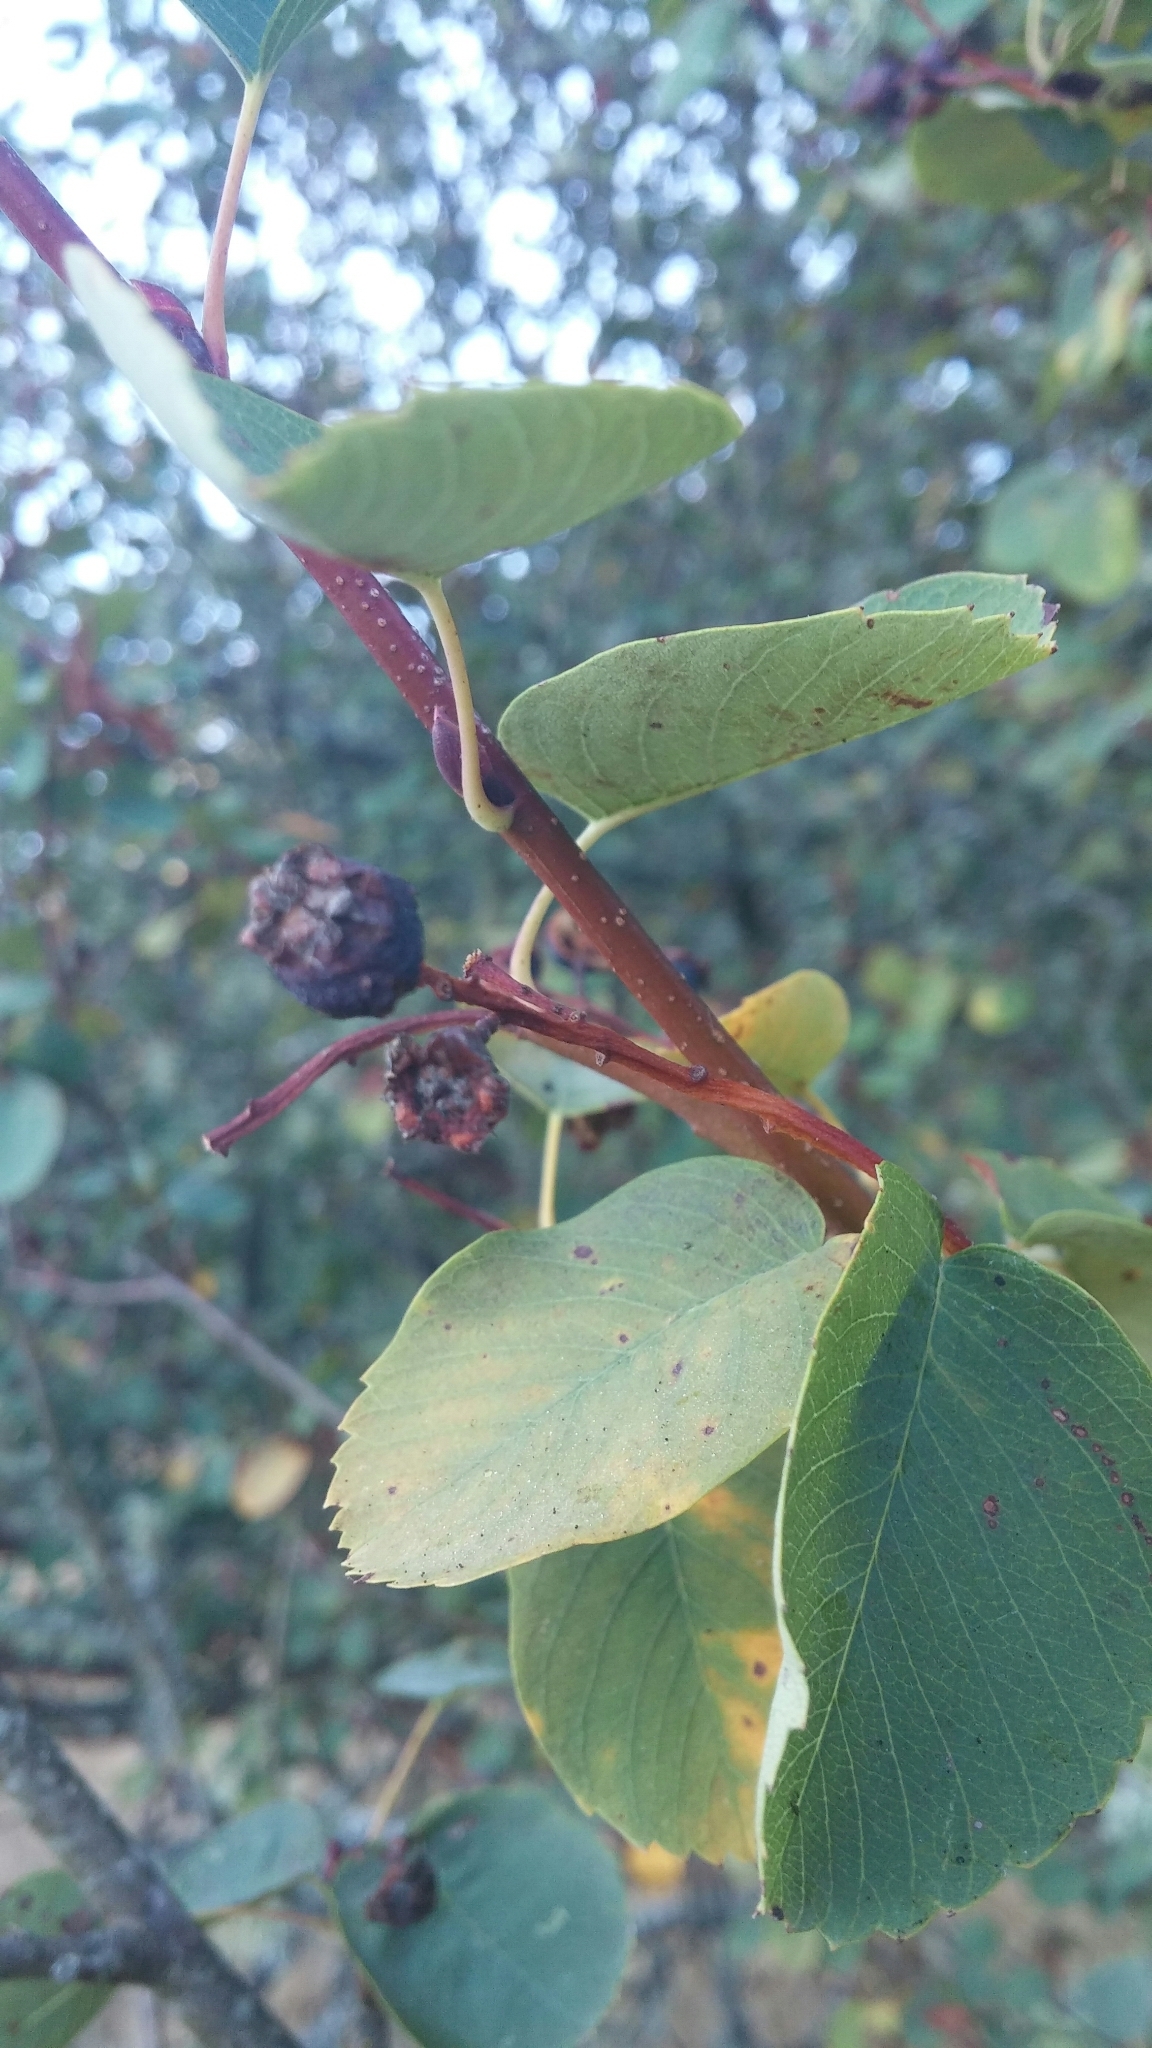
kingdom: Plantae
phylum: Tracheophyta
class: Magnoliopsida
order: Rosales
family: Rosaceae
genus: Amelanchier
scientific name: Amelanchier alnifolia
